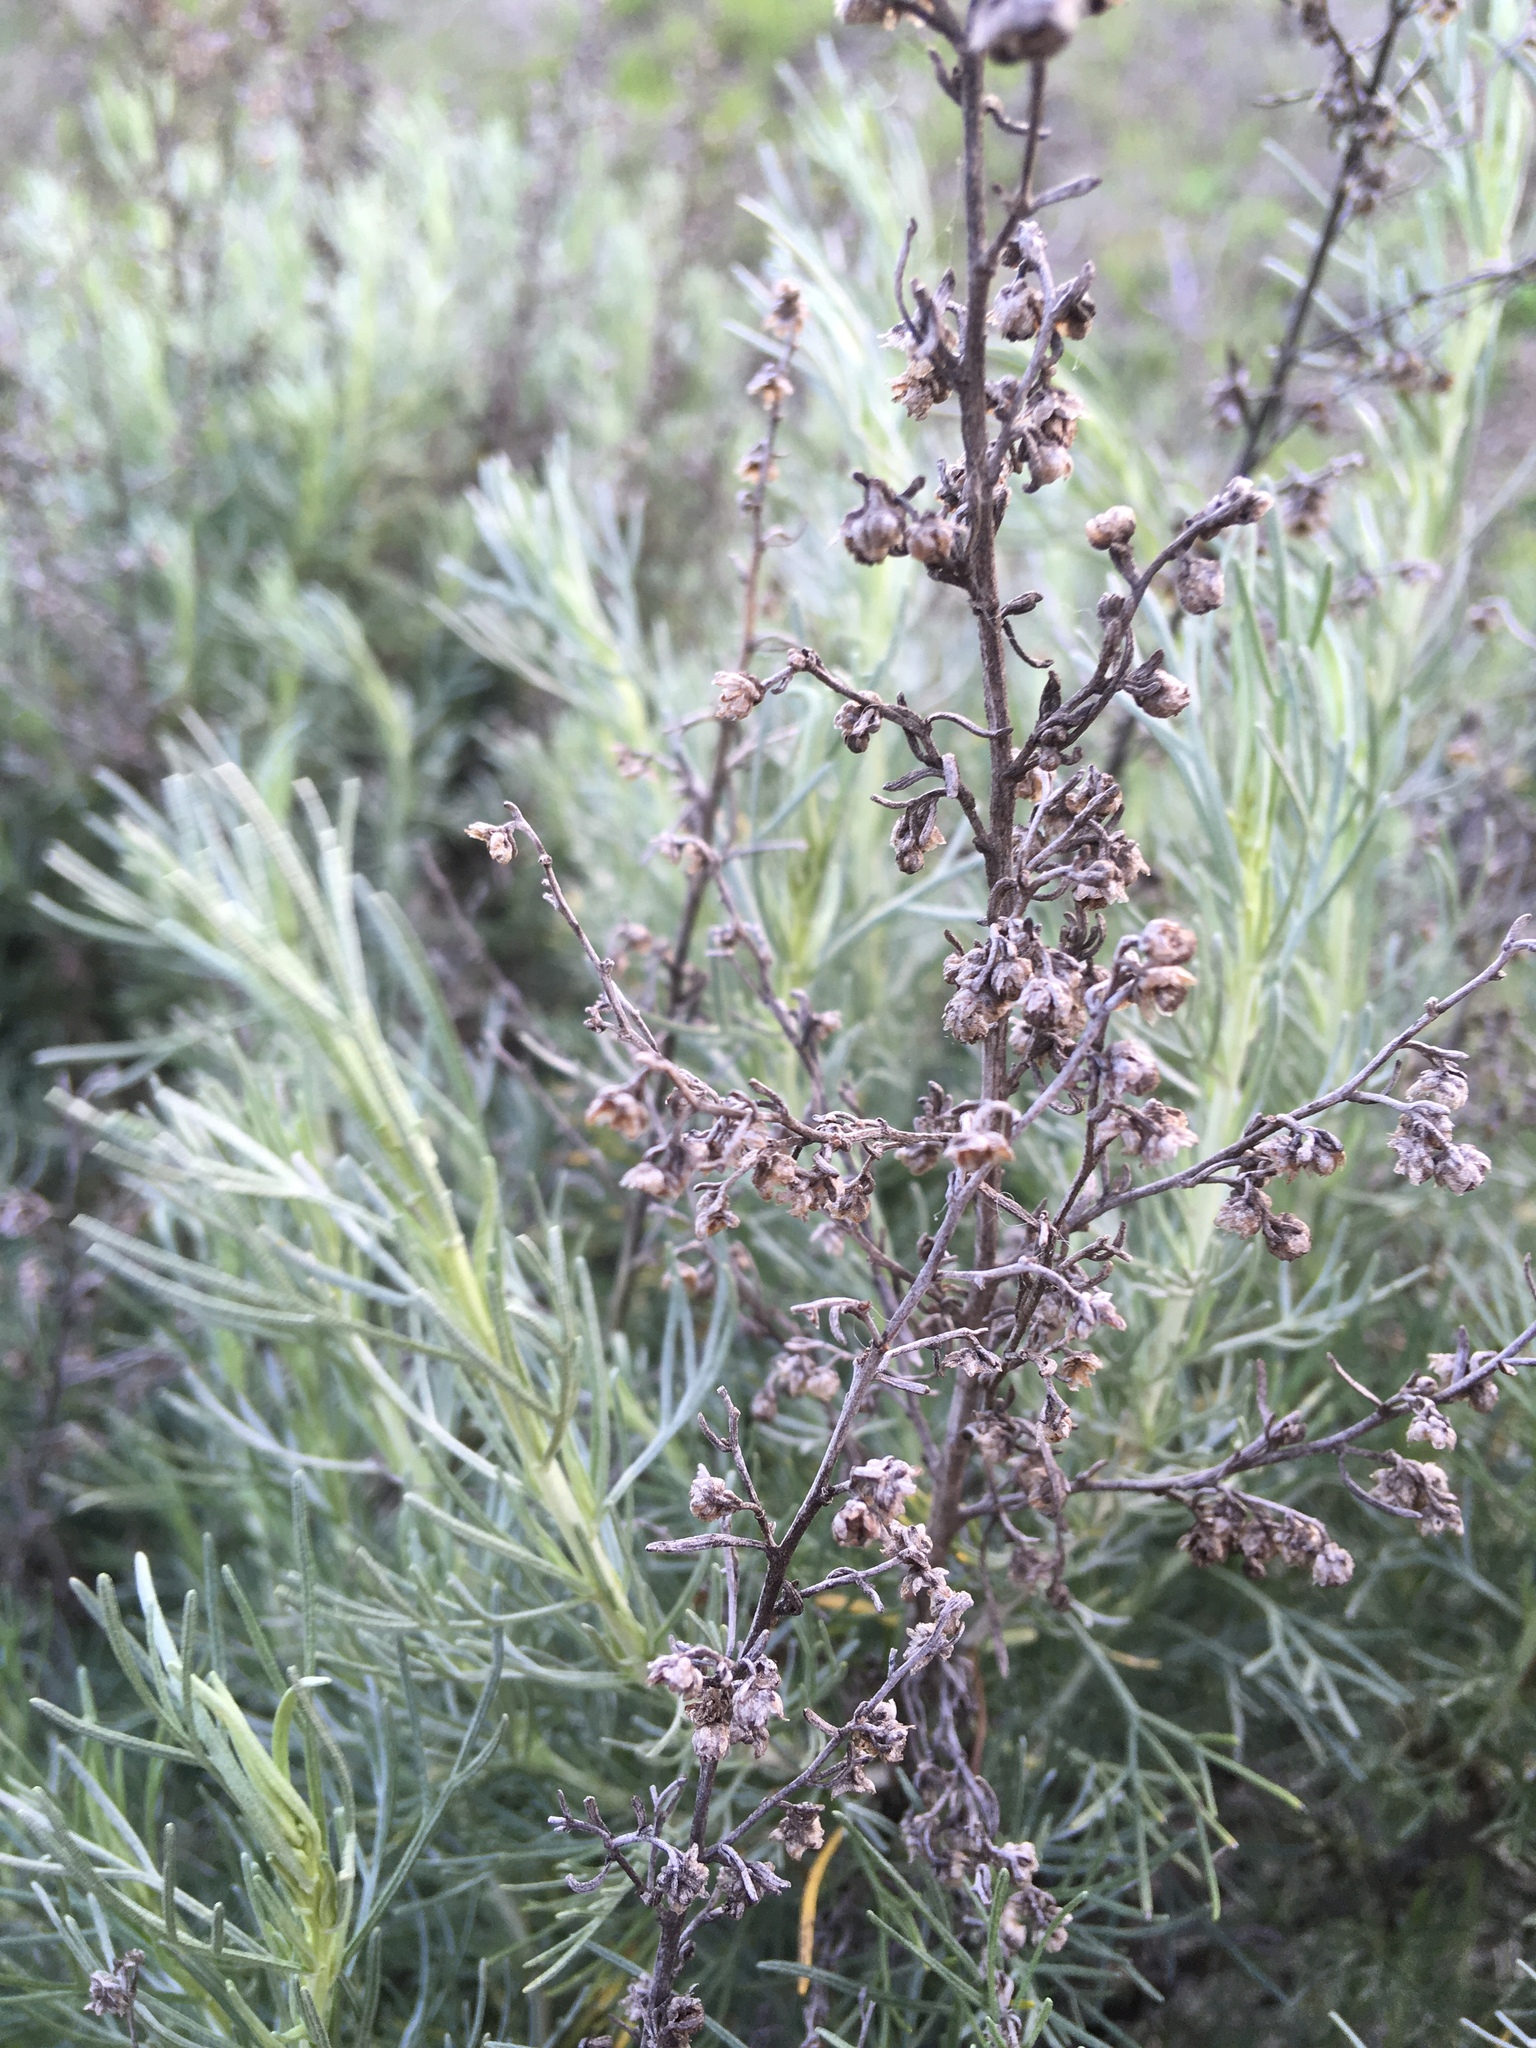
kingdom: Plantae
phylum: Tracheophyta
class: Magnoliopsida
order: Asterales
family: Asteraceae
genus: Artemisia
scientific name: Artemisia californica
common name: California sagebrush
